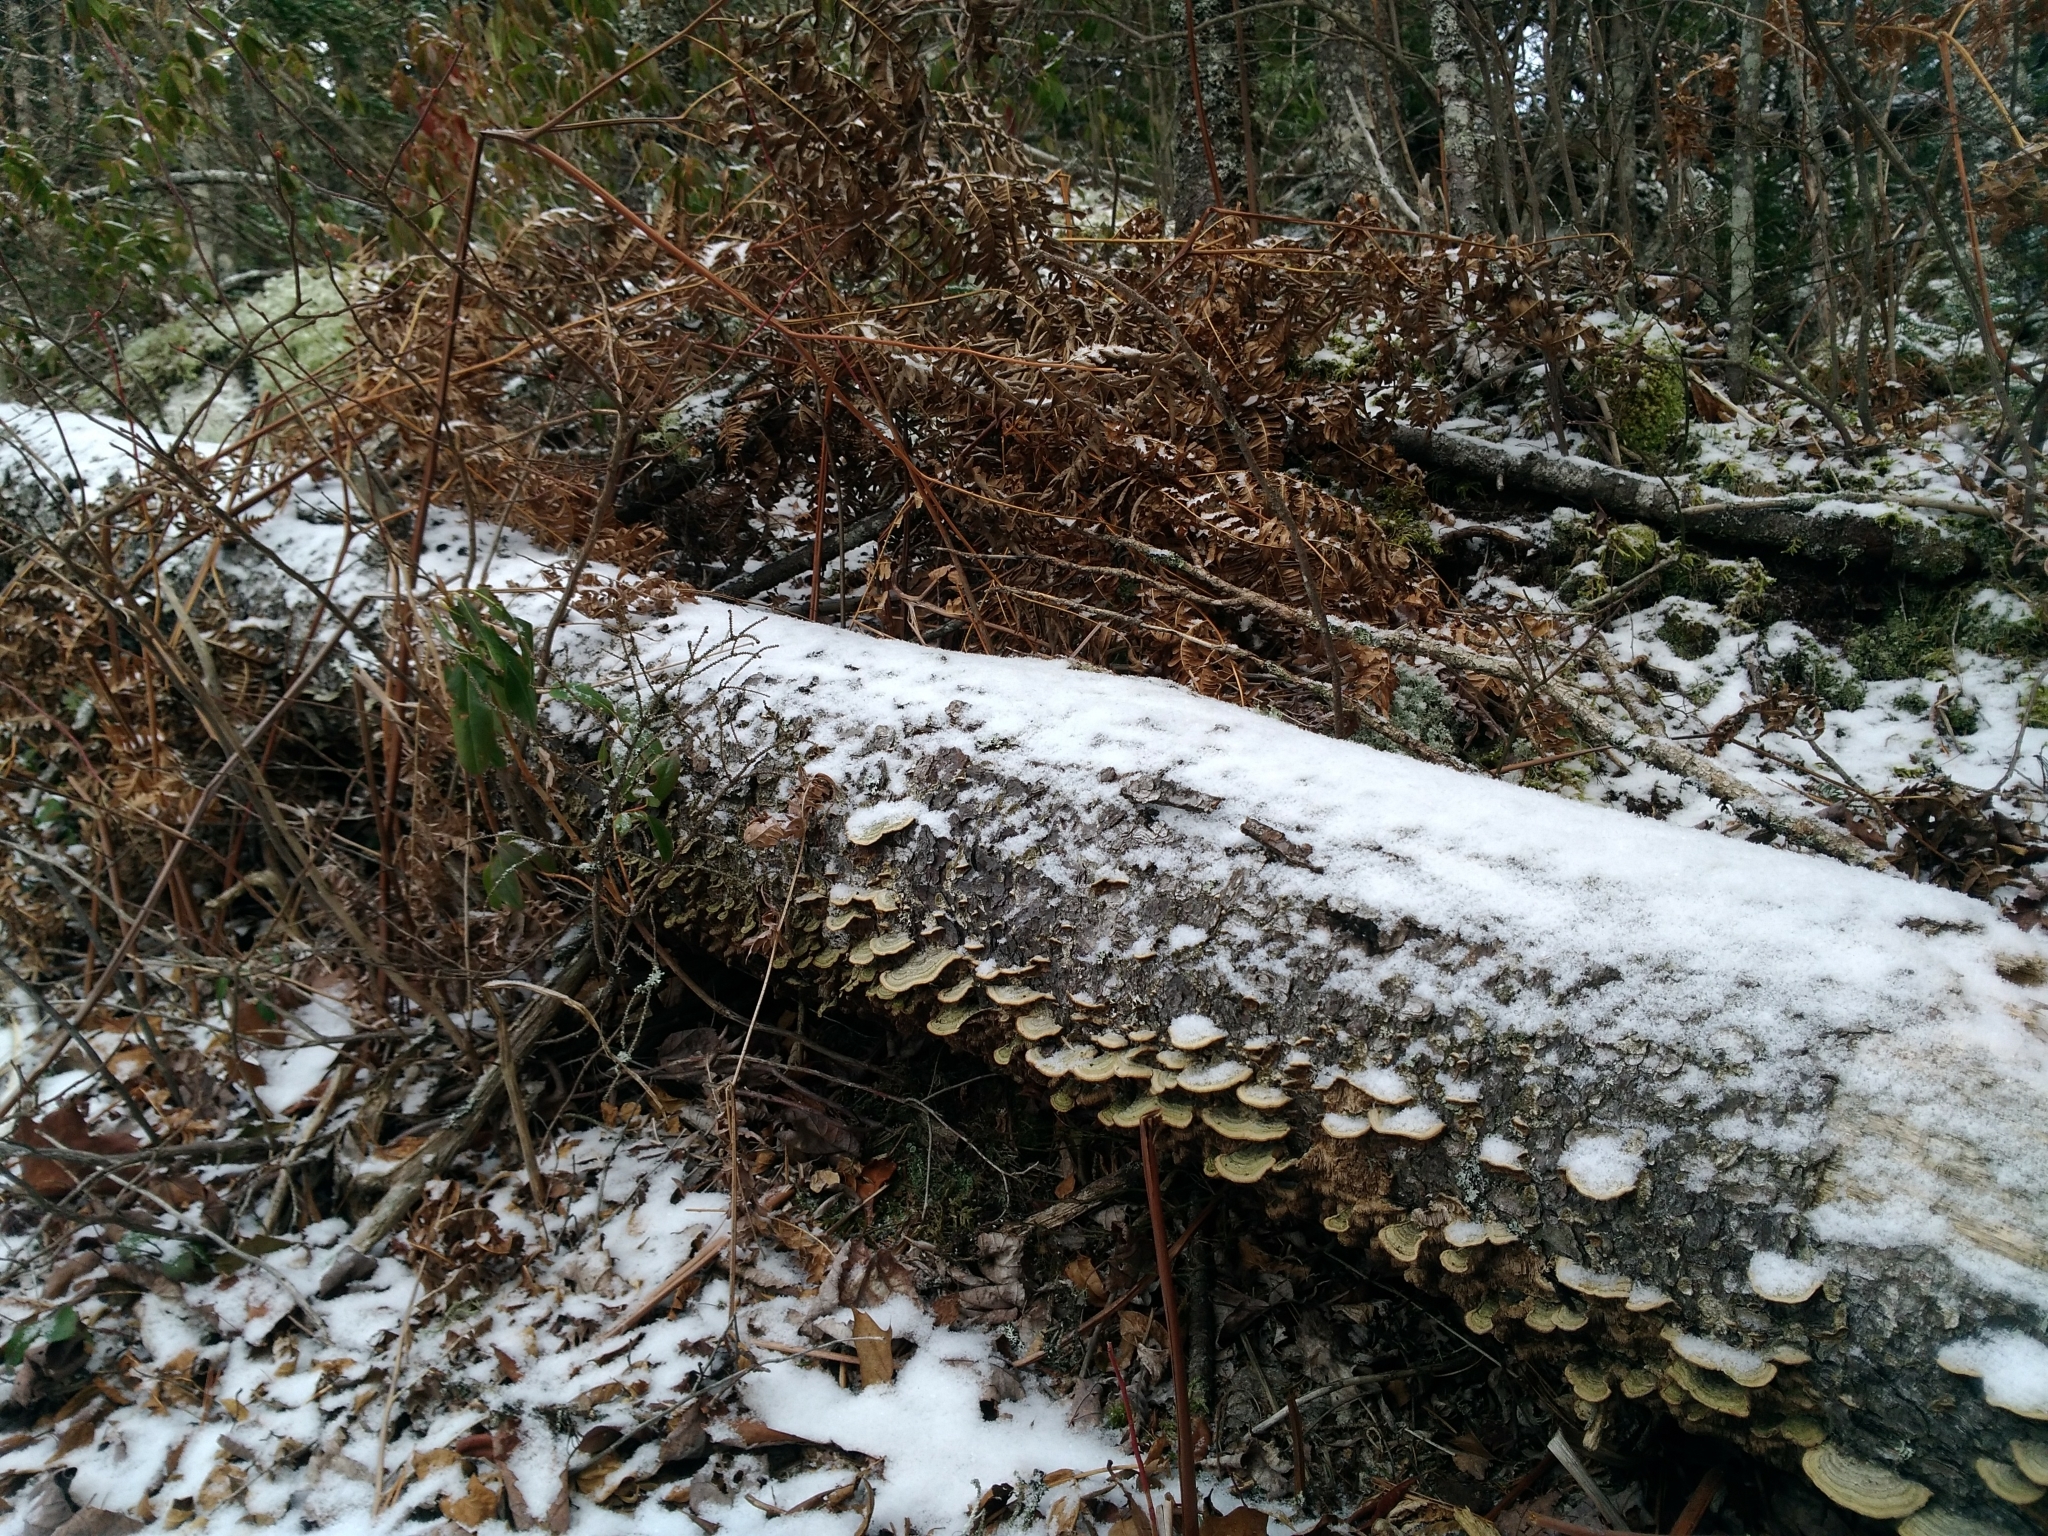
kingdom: Plantae
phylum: Tracheophyta
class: Polypodiopsida
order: Polypodiales
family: Dennstaedtiaceae
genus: Pteridium
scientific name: Pteridium aquilinum
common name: Bracken
